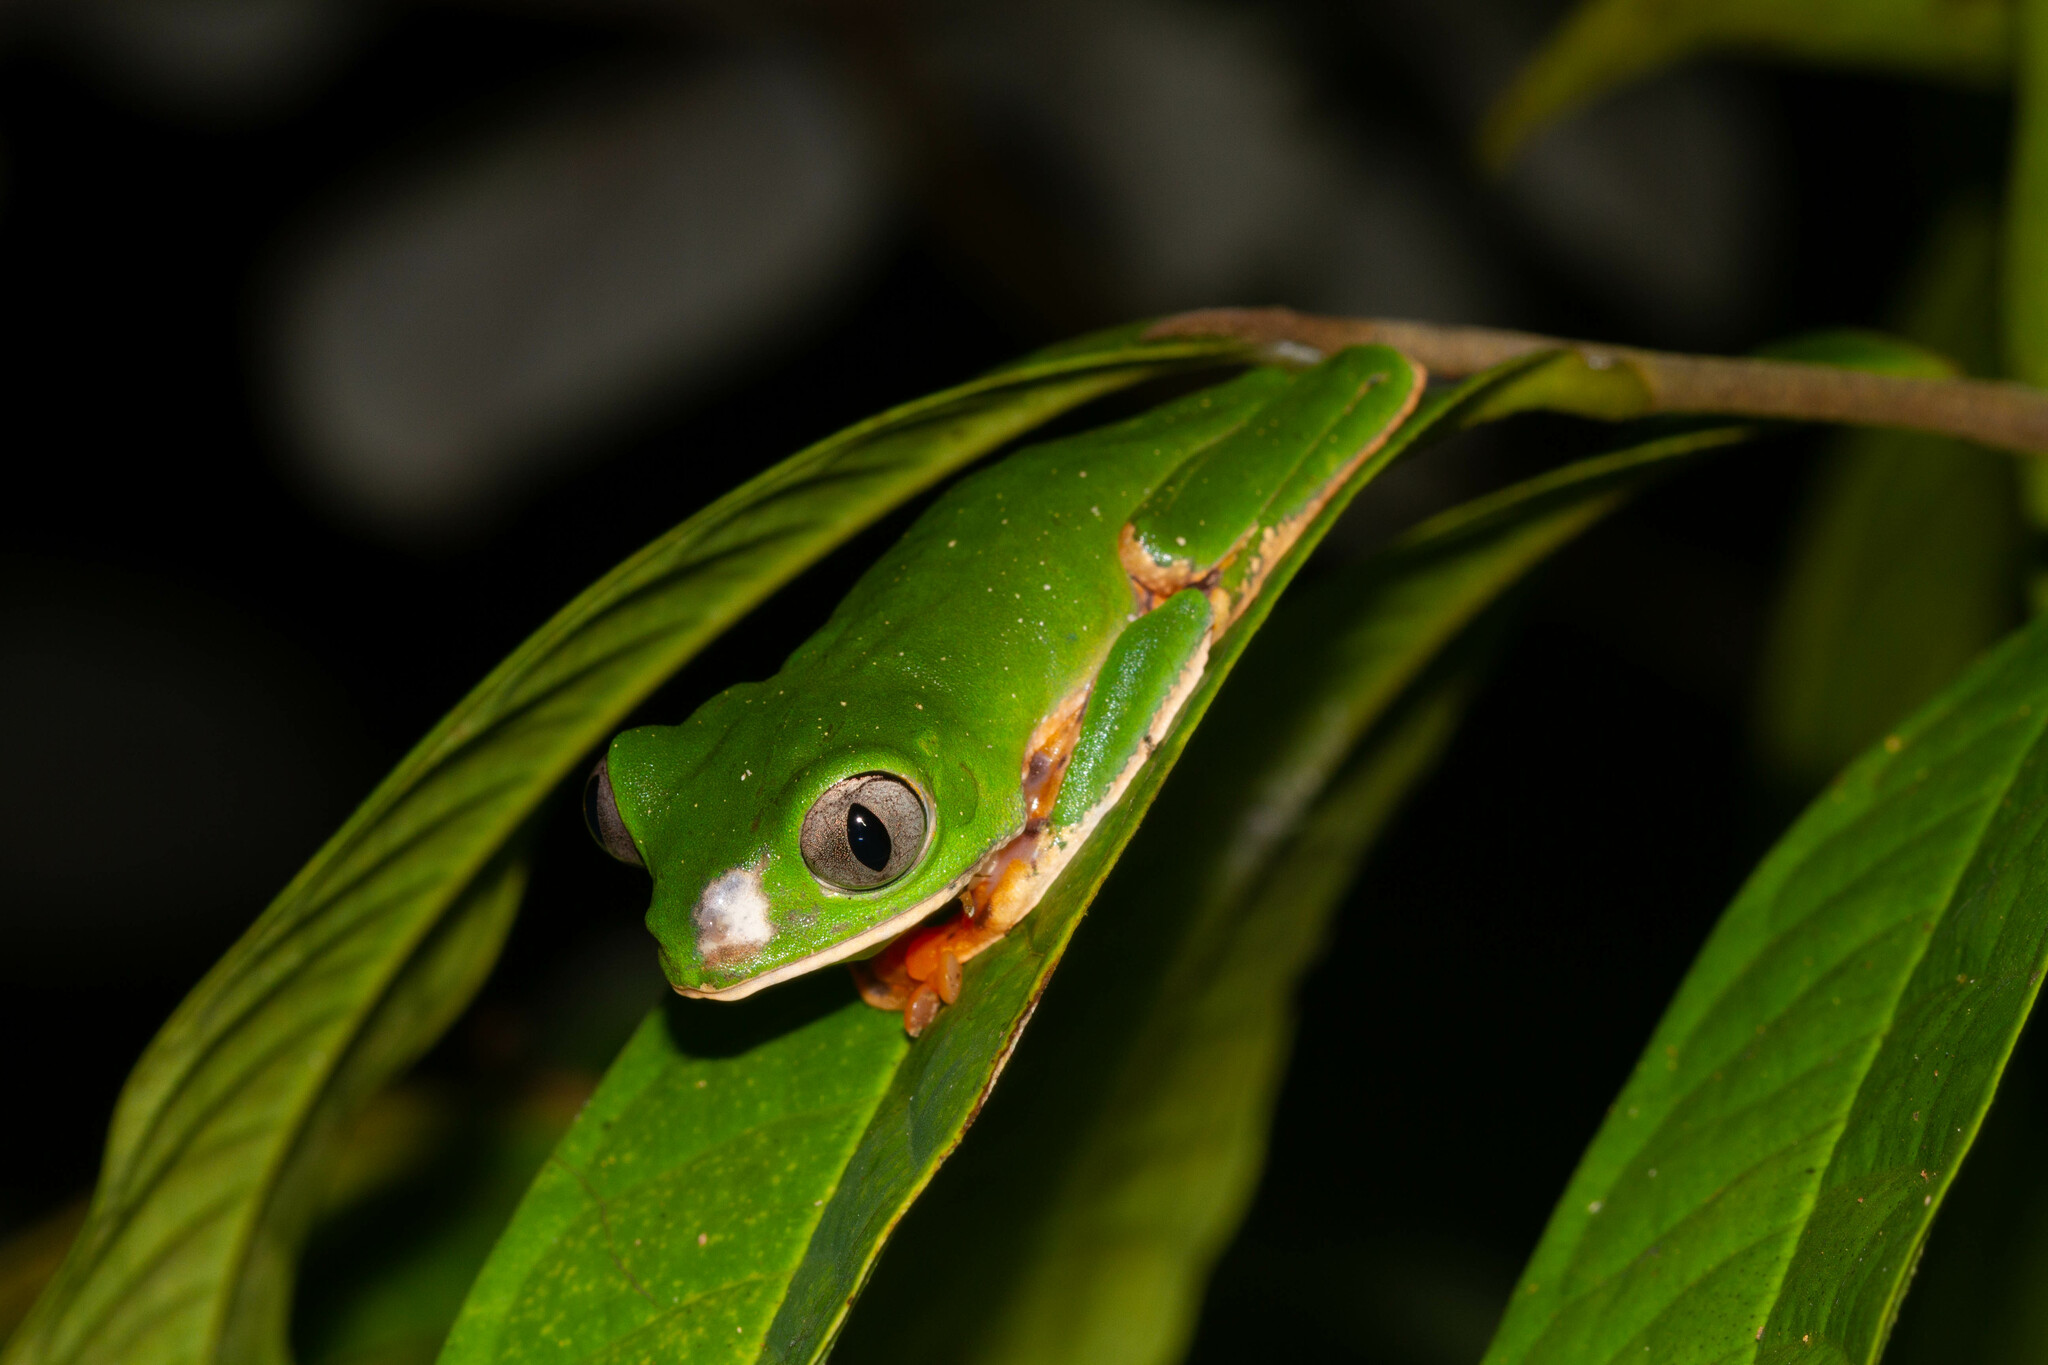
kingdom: Animalia
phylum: Chordata
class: Amphibia
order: Anura
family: Phyllomedusidae
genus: Callimedusa
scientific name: Callimedusa tomopterna
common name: Tiger-striped leaf frog
